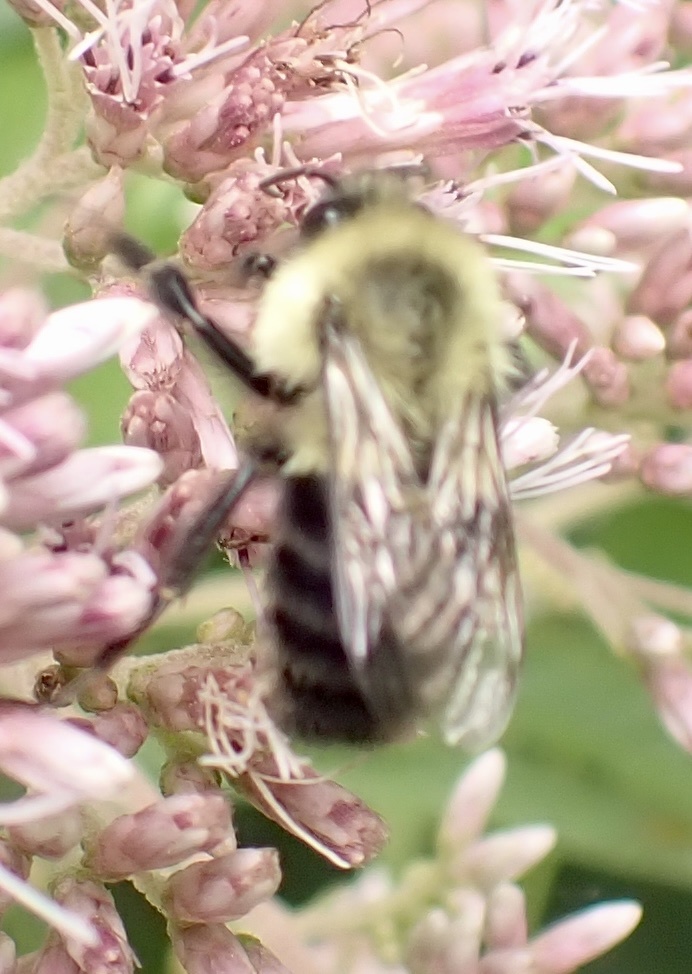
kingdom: Animalia
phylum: Arthropoda
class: Insecta
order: Hymenoptera
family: Apidae
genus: Bombus
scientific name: Bombus impatiens
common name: Common eastern bumble bee
